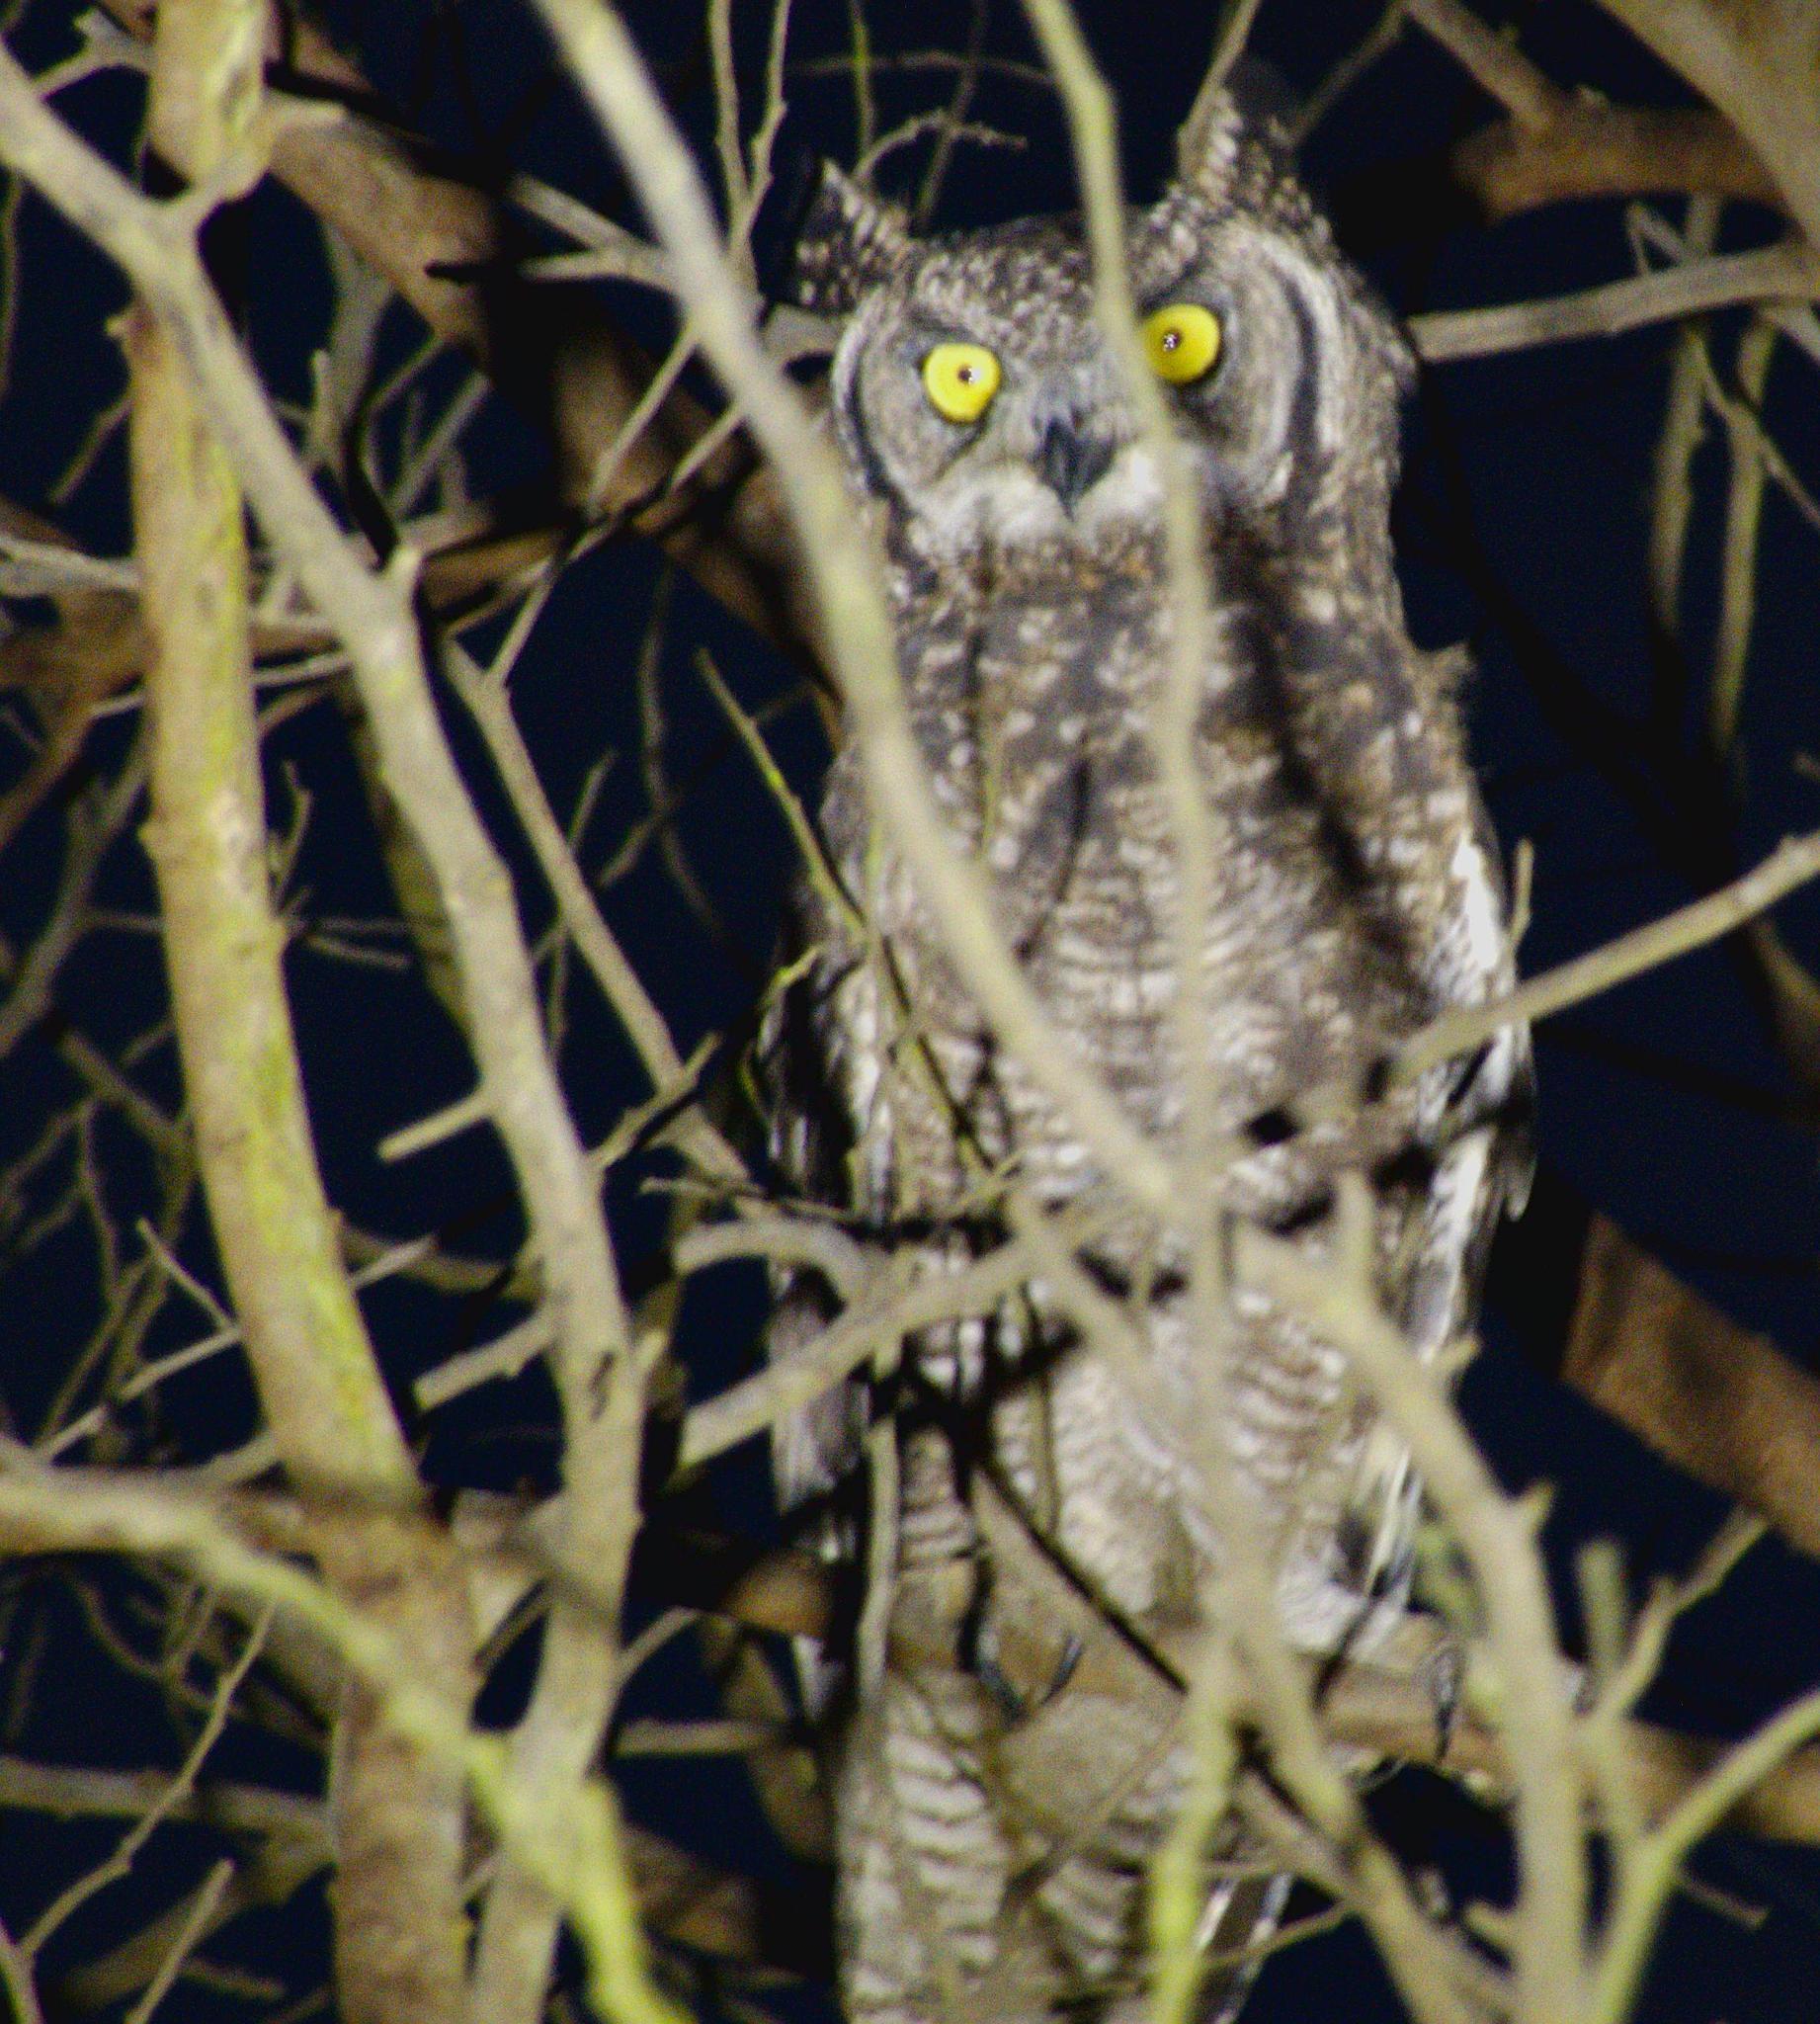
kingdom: Animalia
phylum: Chordata
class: Aves
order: Strigiformes
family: Strigidae
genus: Bubo
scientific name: Bubo africanus
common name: Spotted eagle-owl
